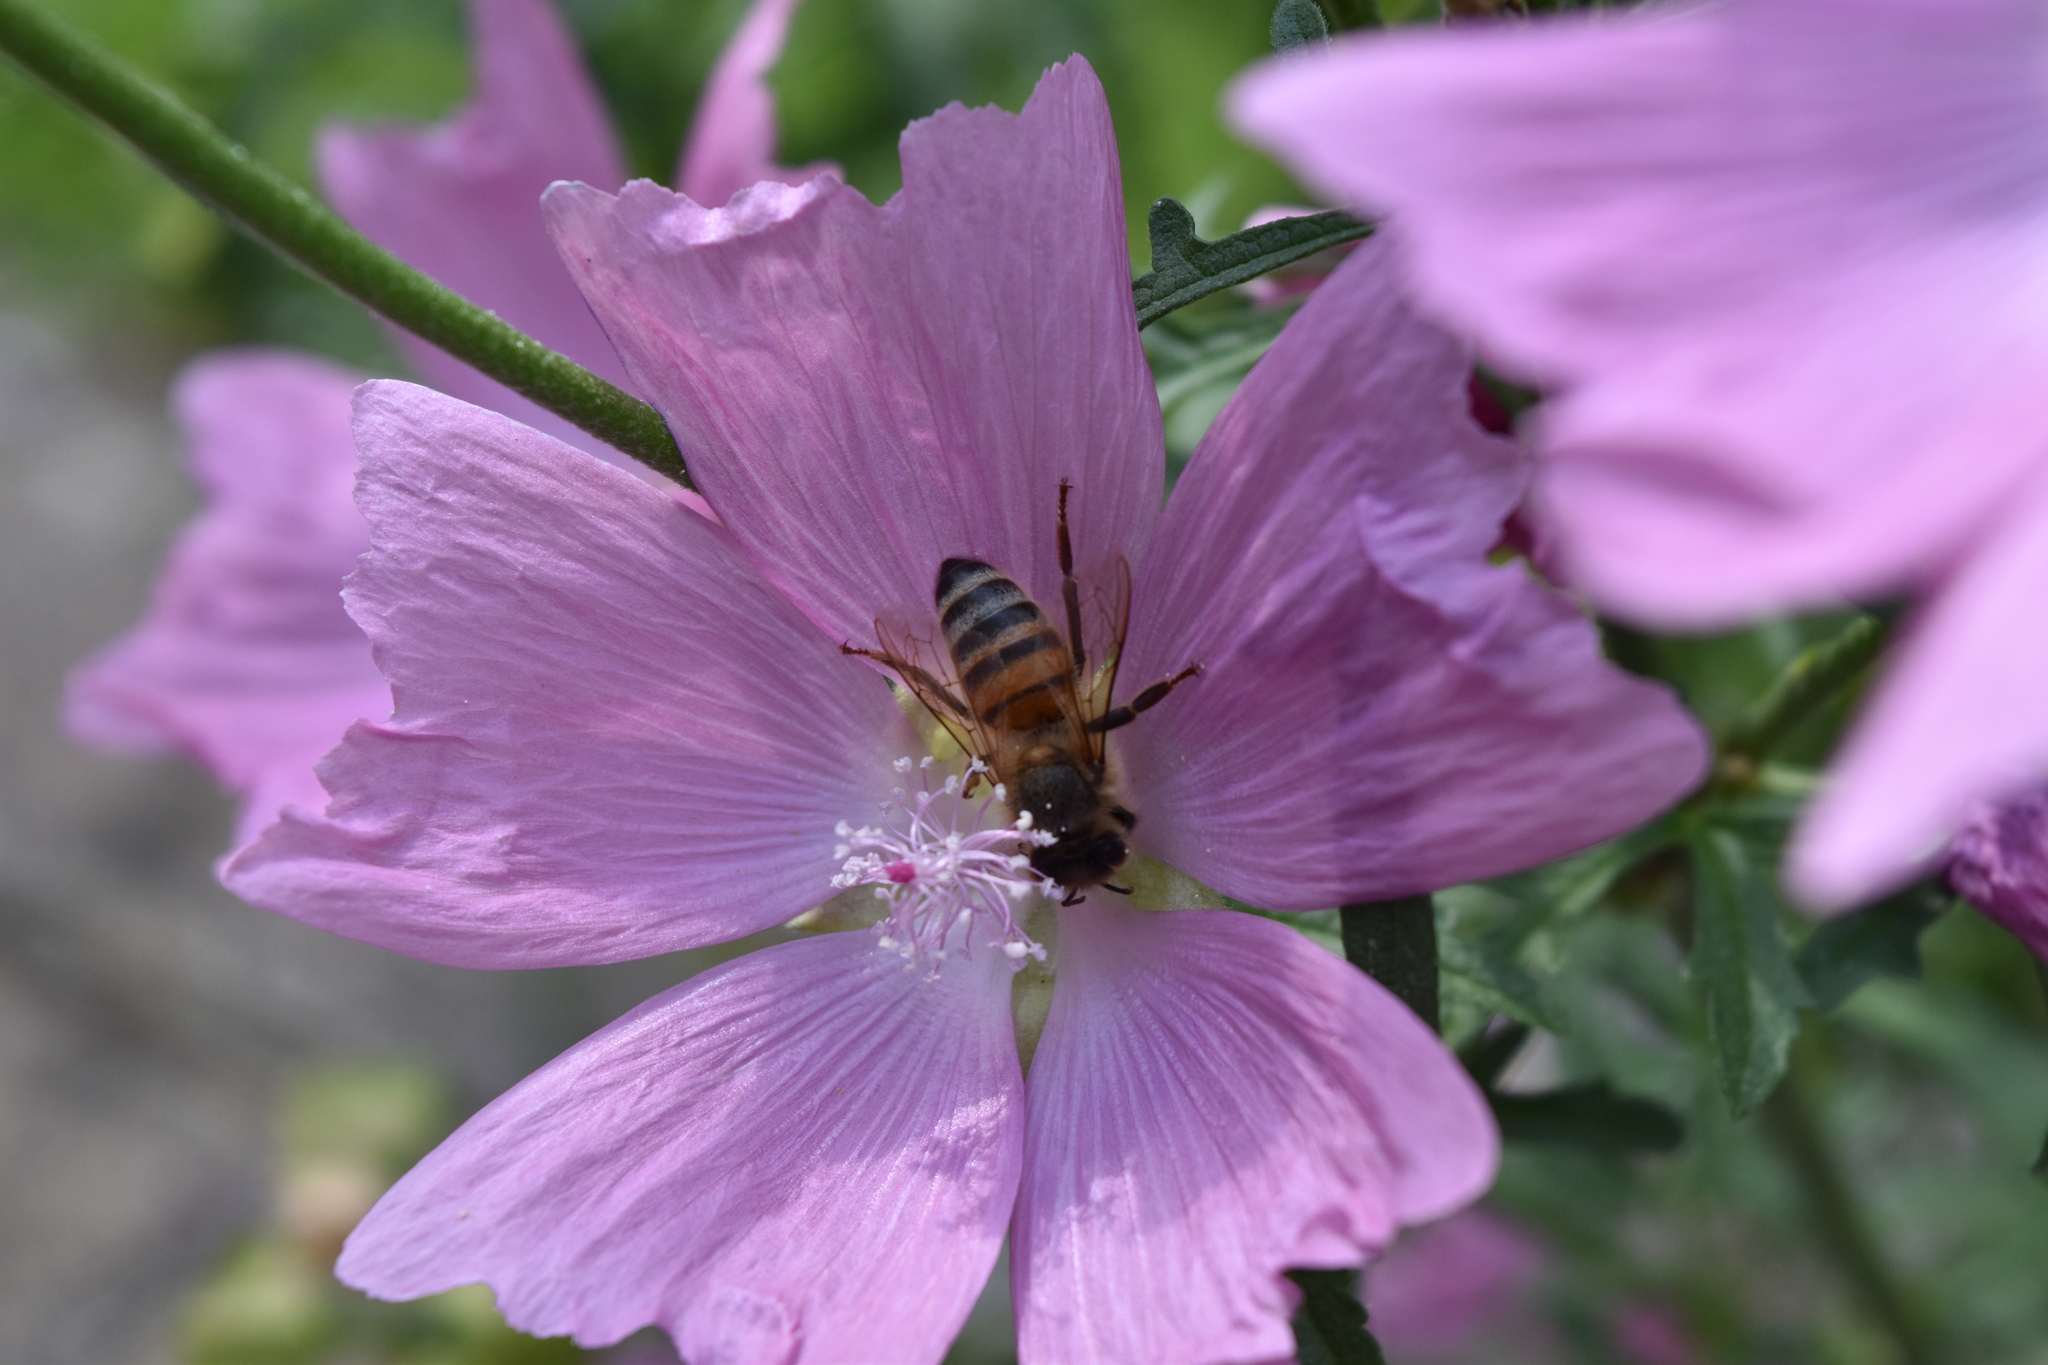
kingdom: Animalia
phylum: Arthropoda
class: Insecta
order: Hymenoptera
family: Apidae
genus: Apis
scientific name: Apis mellifera
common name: Honey bee
